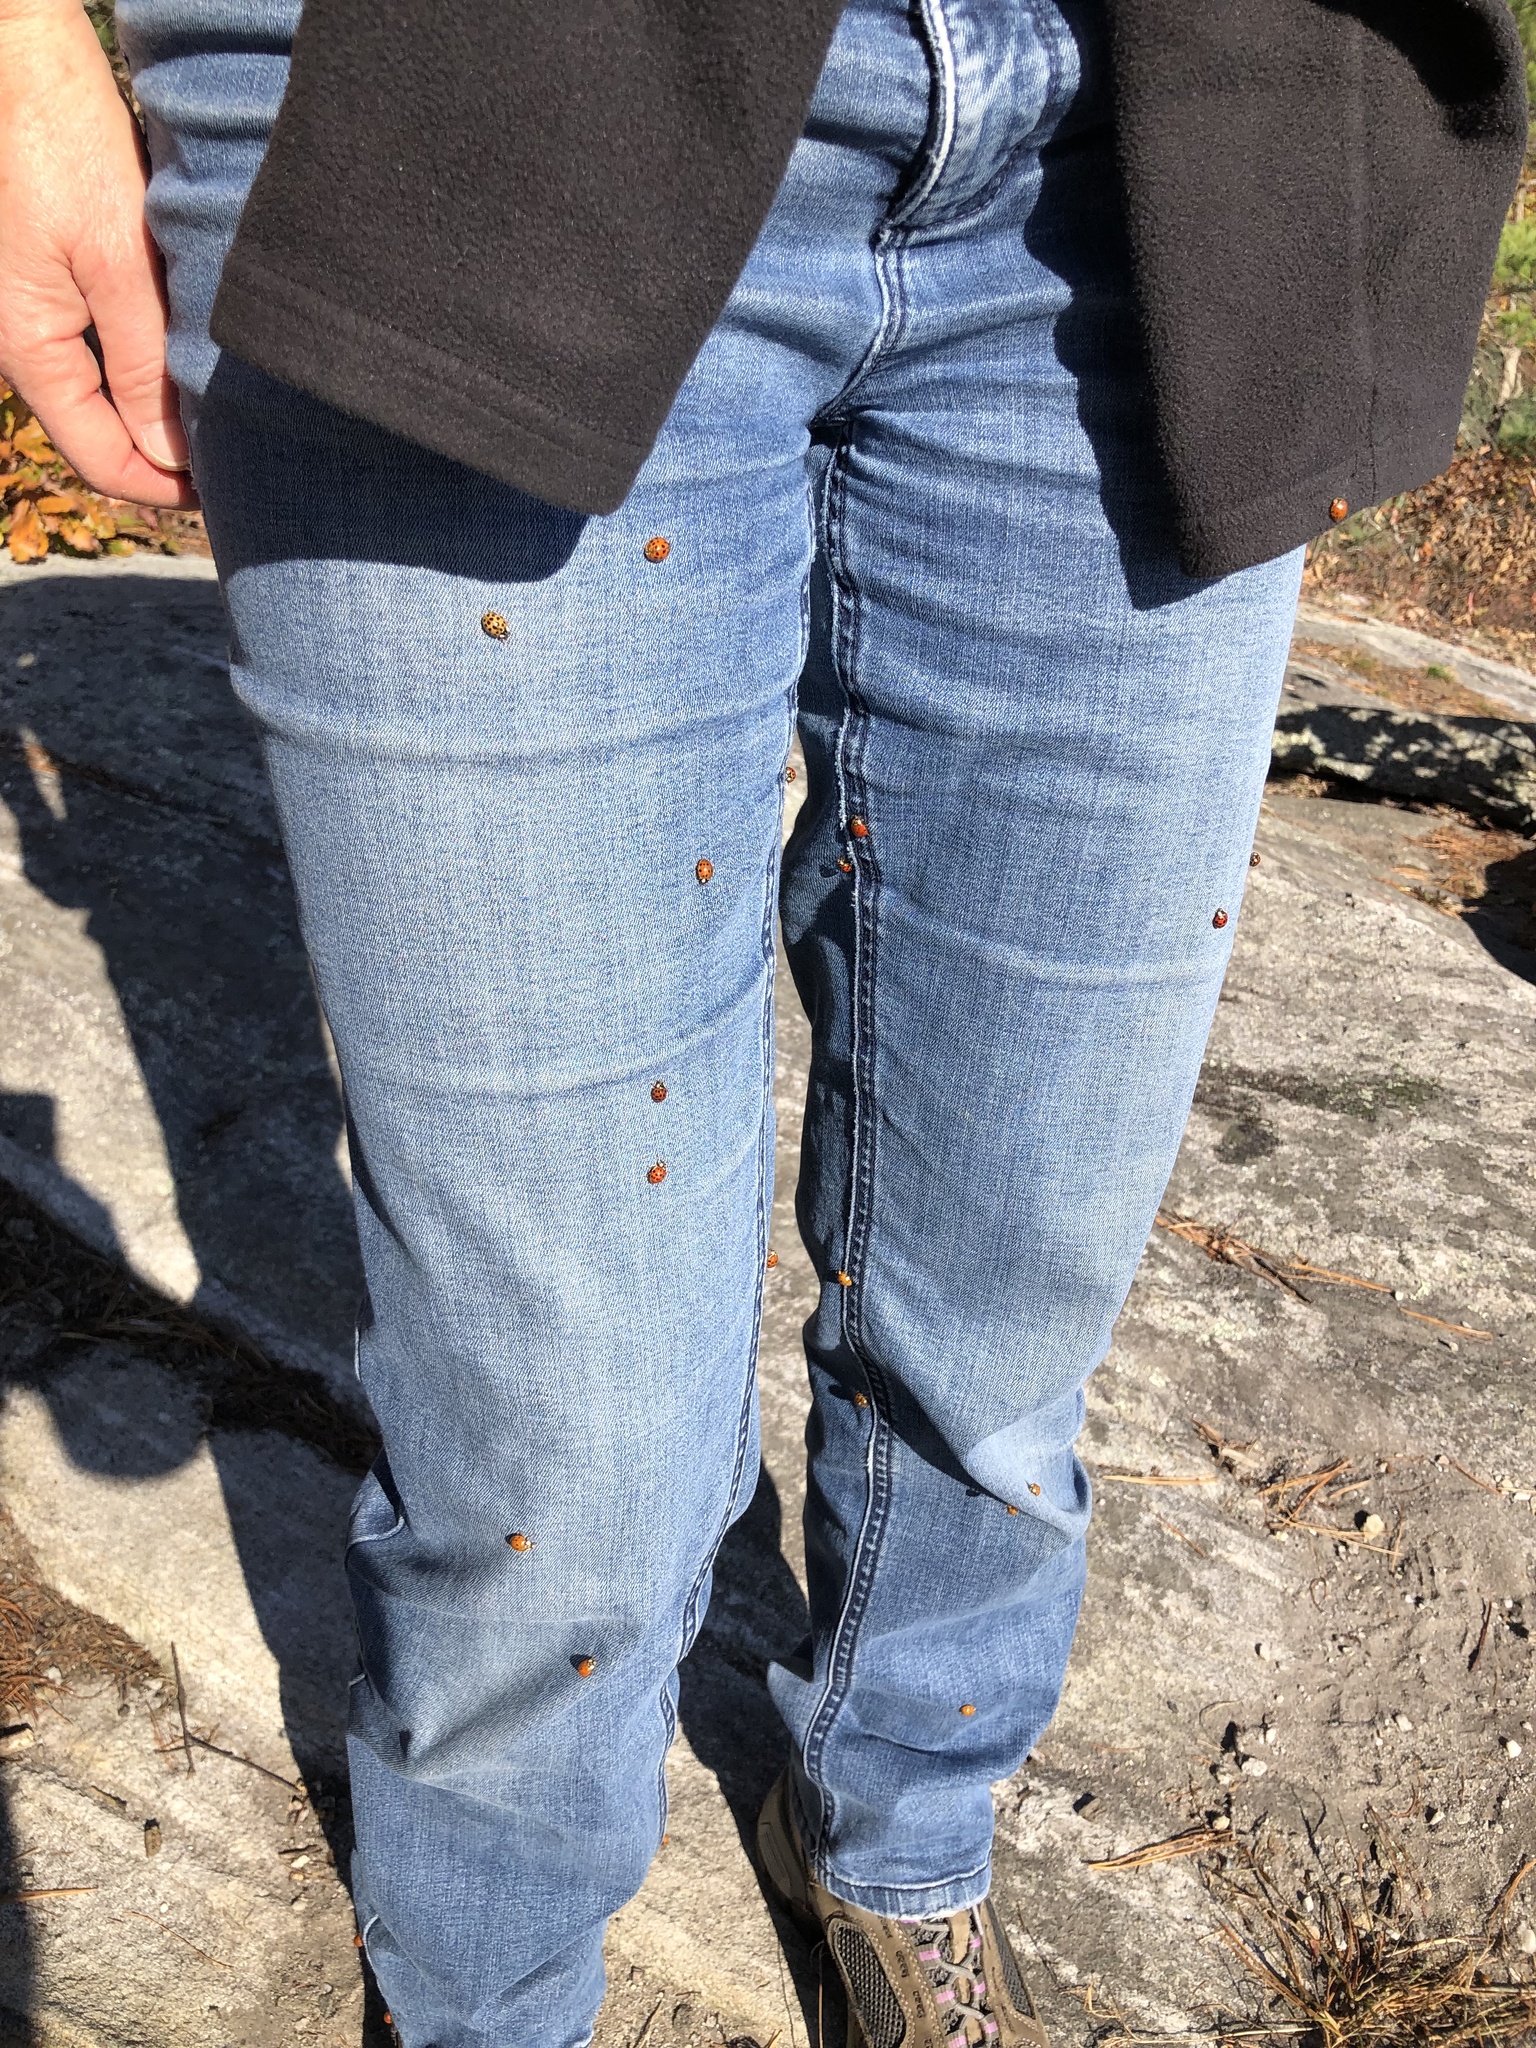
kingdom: Animalia
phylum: Arthropoda
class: Insecta
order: Coleoptera
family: Coccinellidae
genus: Harmonia
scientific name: Harmonia axyridis
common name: Harlequin ladybird
